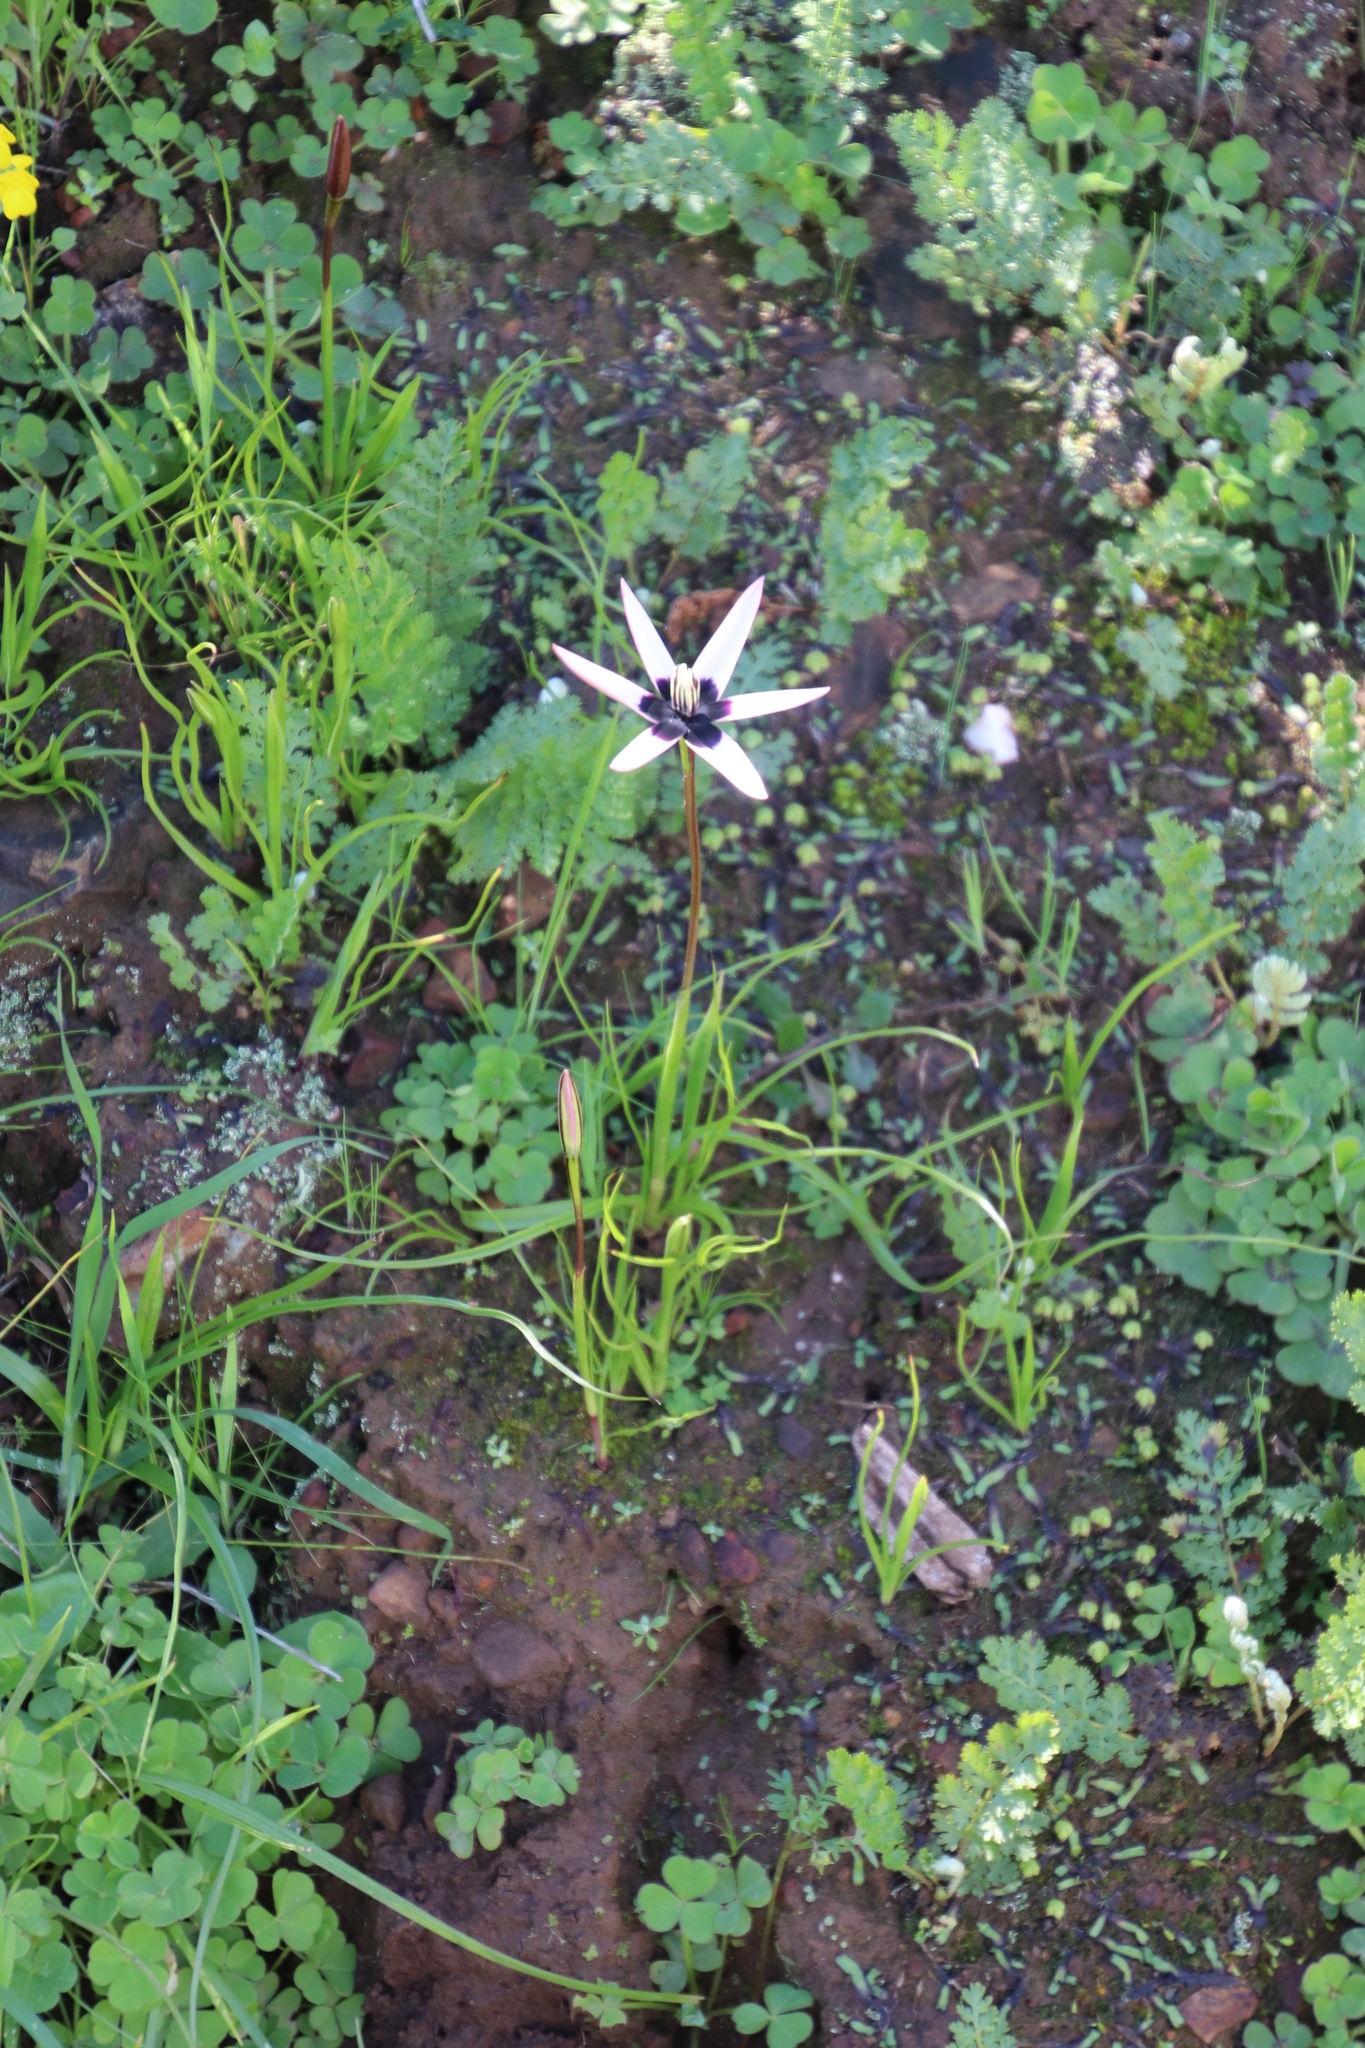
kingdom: Plantae
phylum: Tracheophyta
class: Liliopsida
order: Asparagales
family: Hypoxidaceae
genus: Pauridia
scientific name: Pauridia capensis
